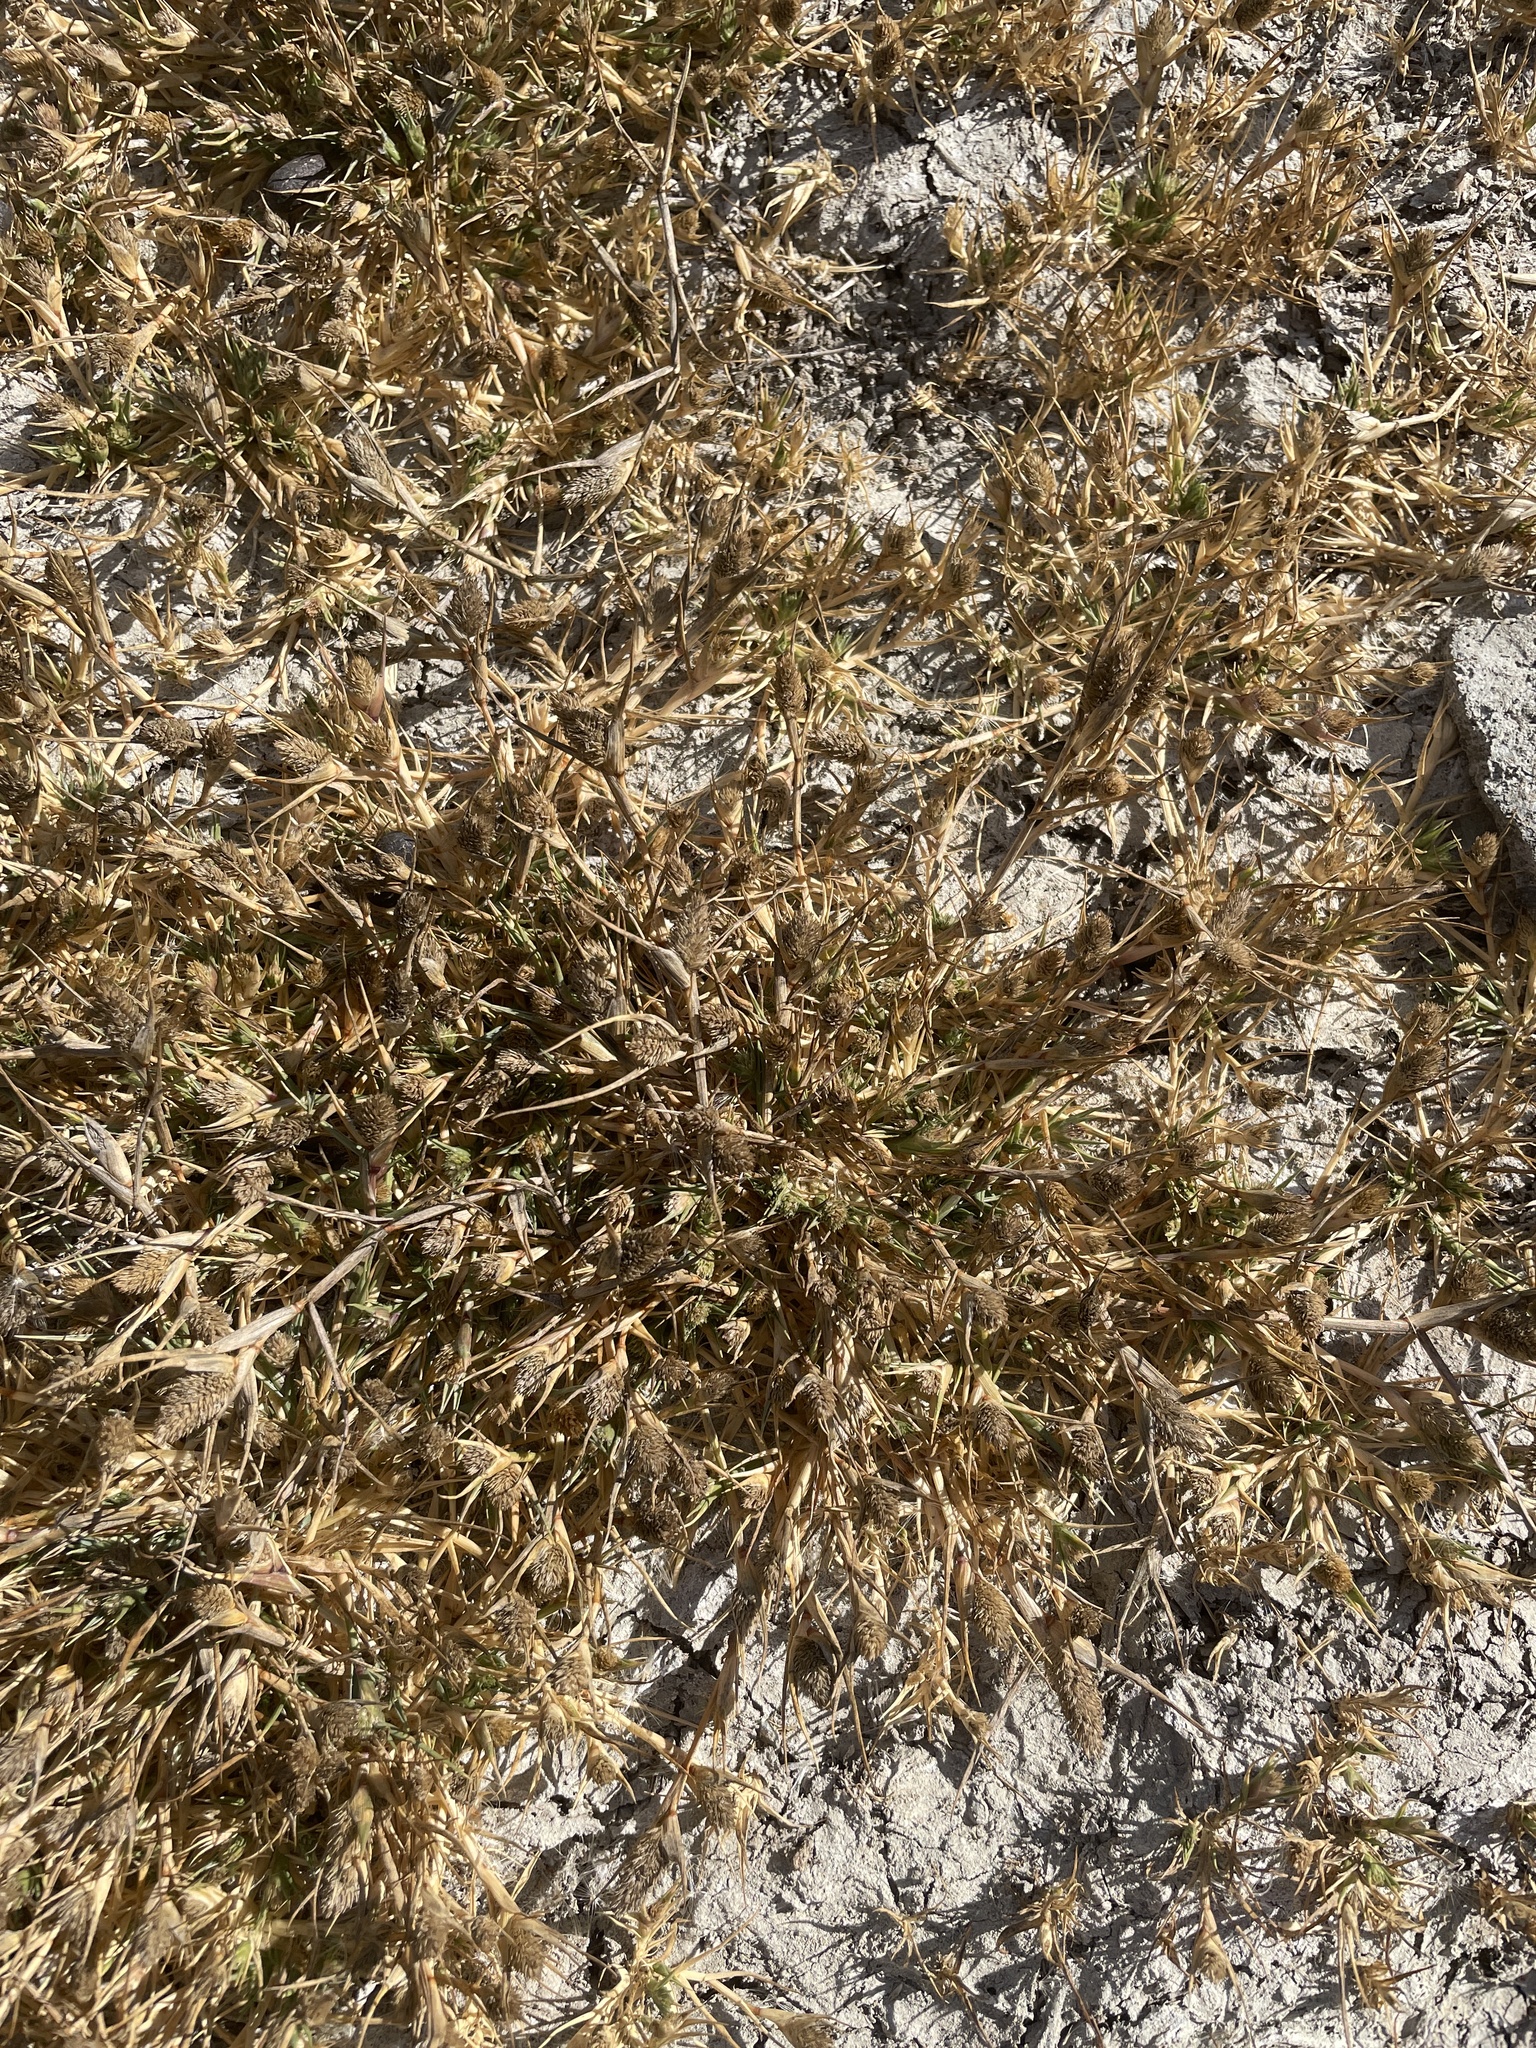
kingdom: Plantae
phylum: Tracheophyta
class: Liliopsida
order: Poales
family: Poaceae
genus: Sporobolus
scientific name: Sporobolus schoenoides
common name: Rush-like timothy
